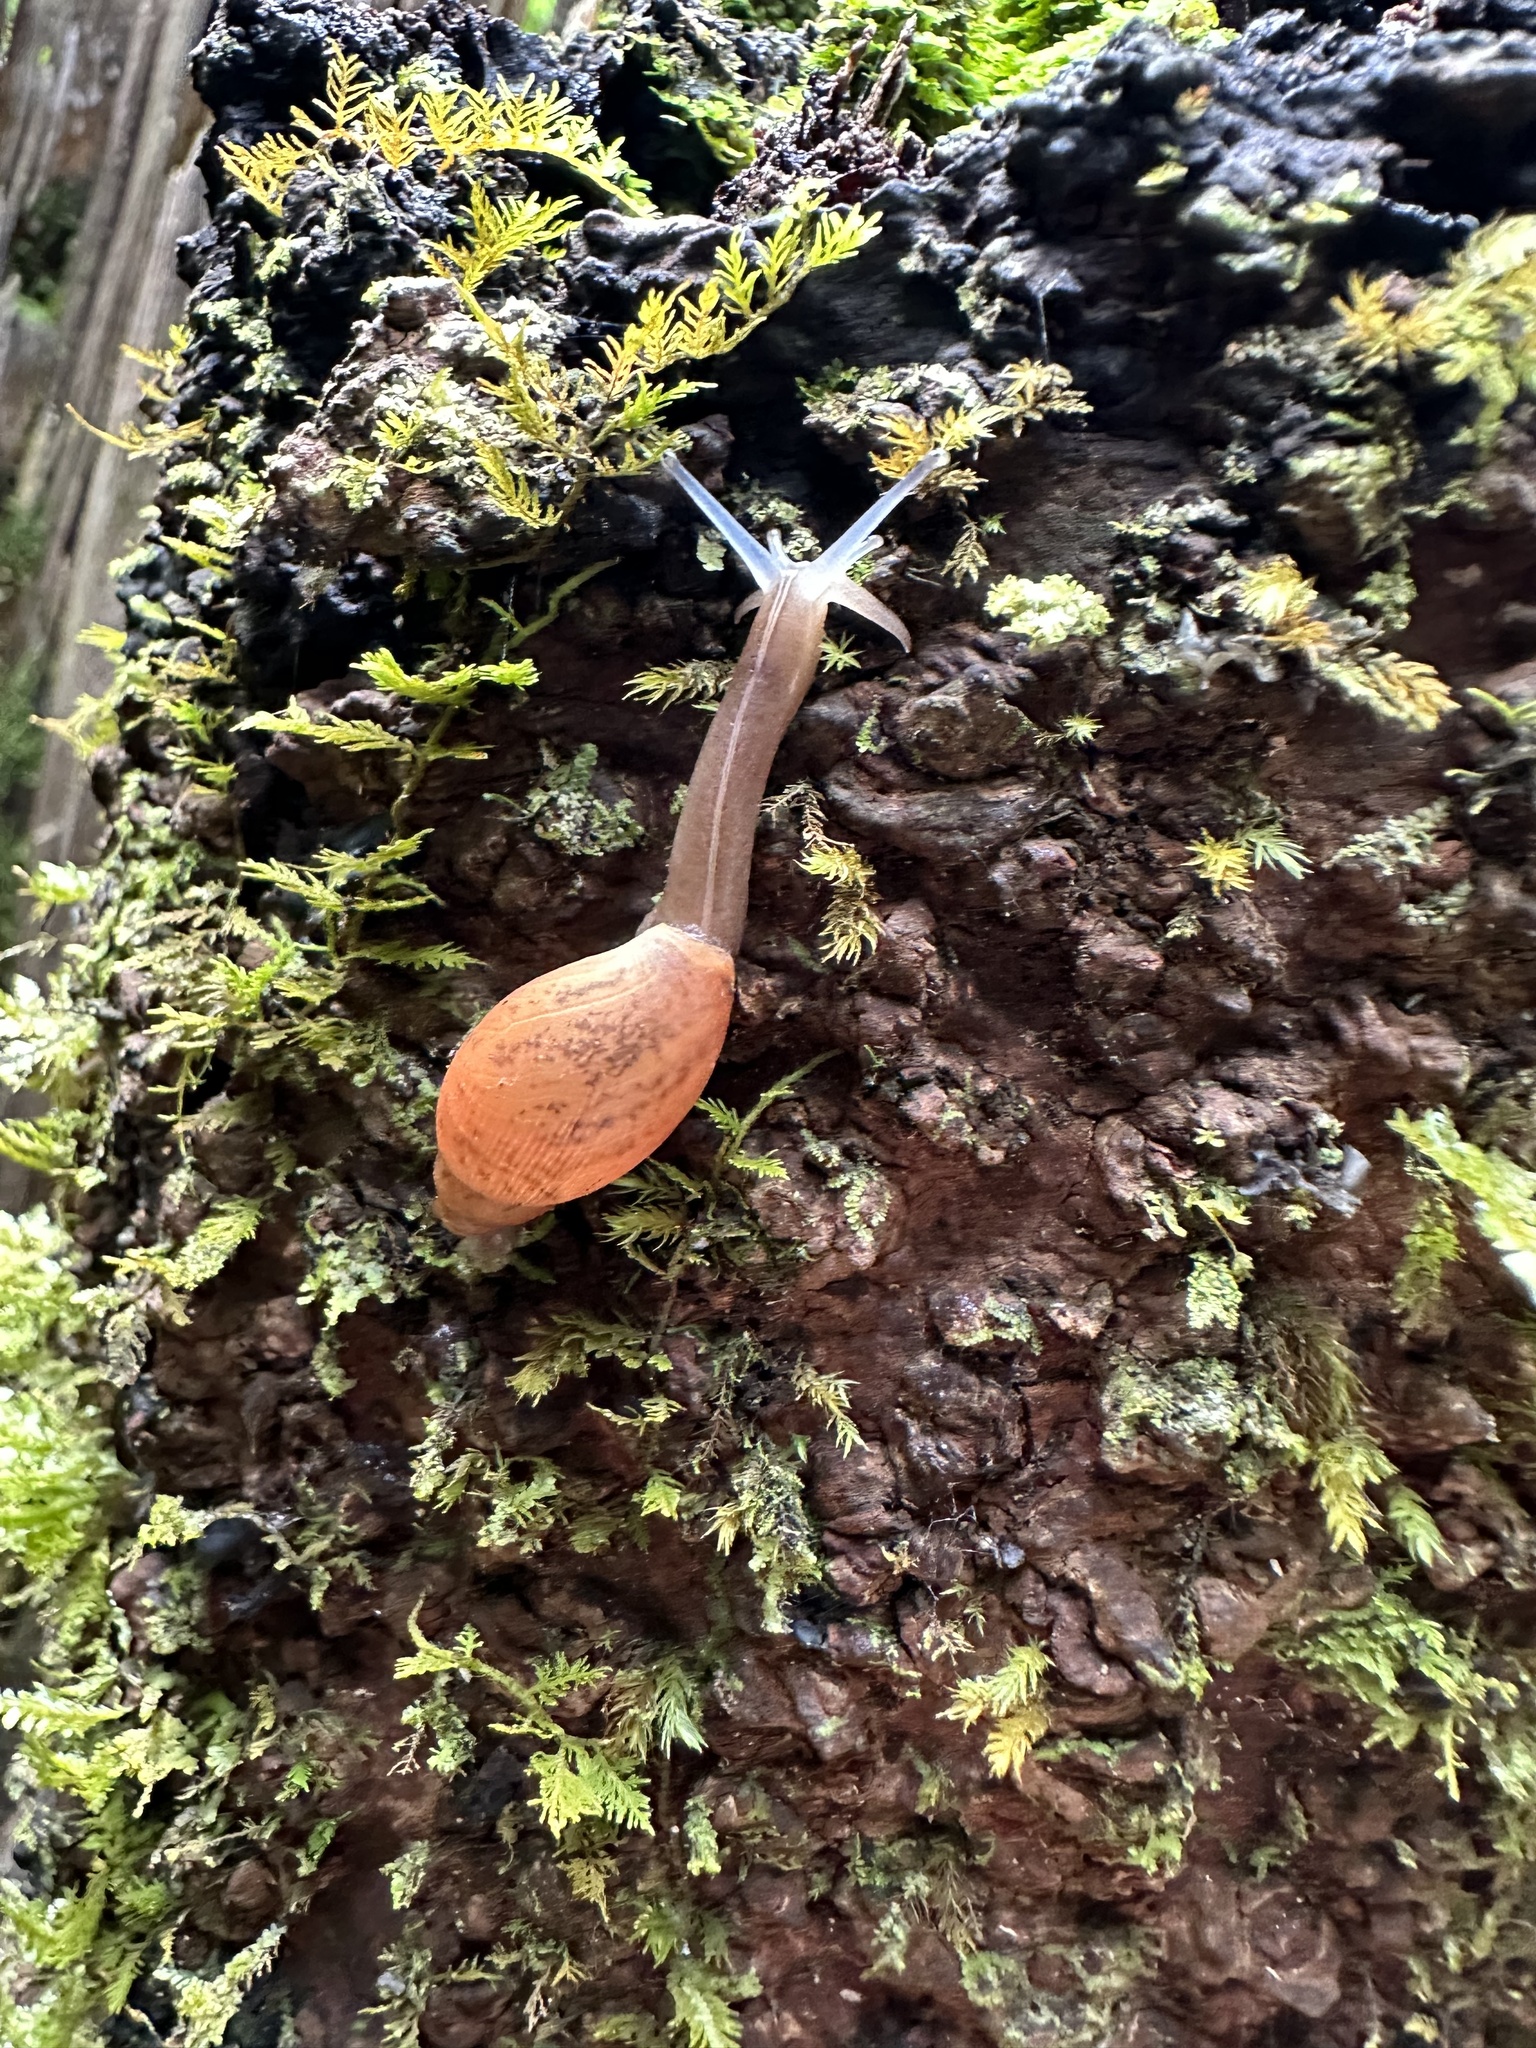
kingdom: Animalia
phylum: Mollusca
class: Gastropoda
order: Stylommatophora
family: Spiraxidae
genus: Euglandina
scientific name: Euglandina rosea
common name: Rosy wolfsnail
